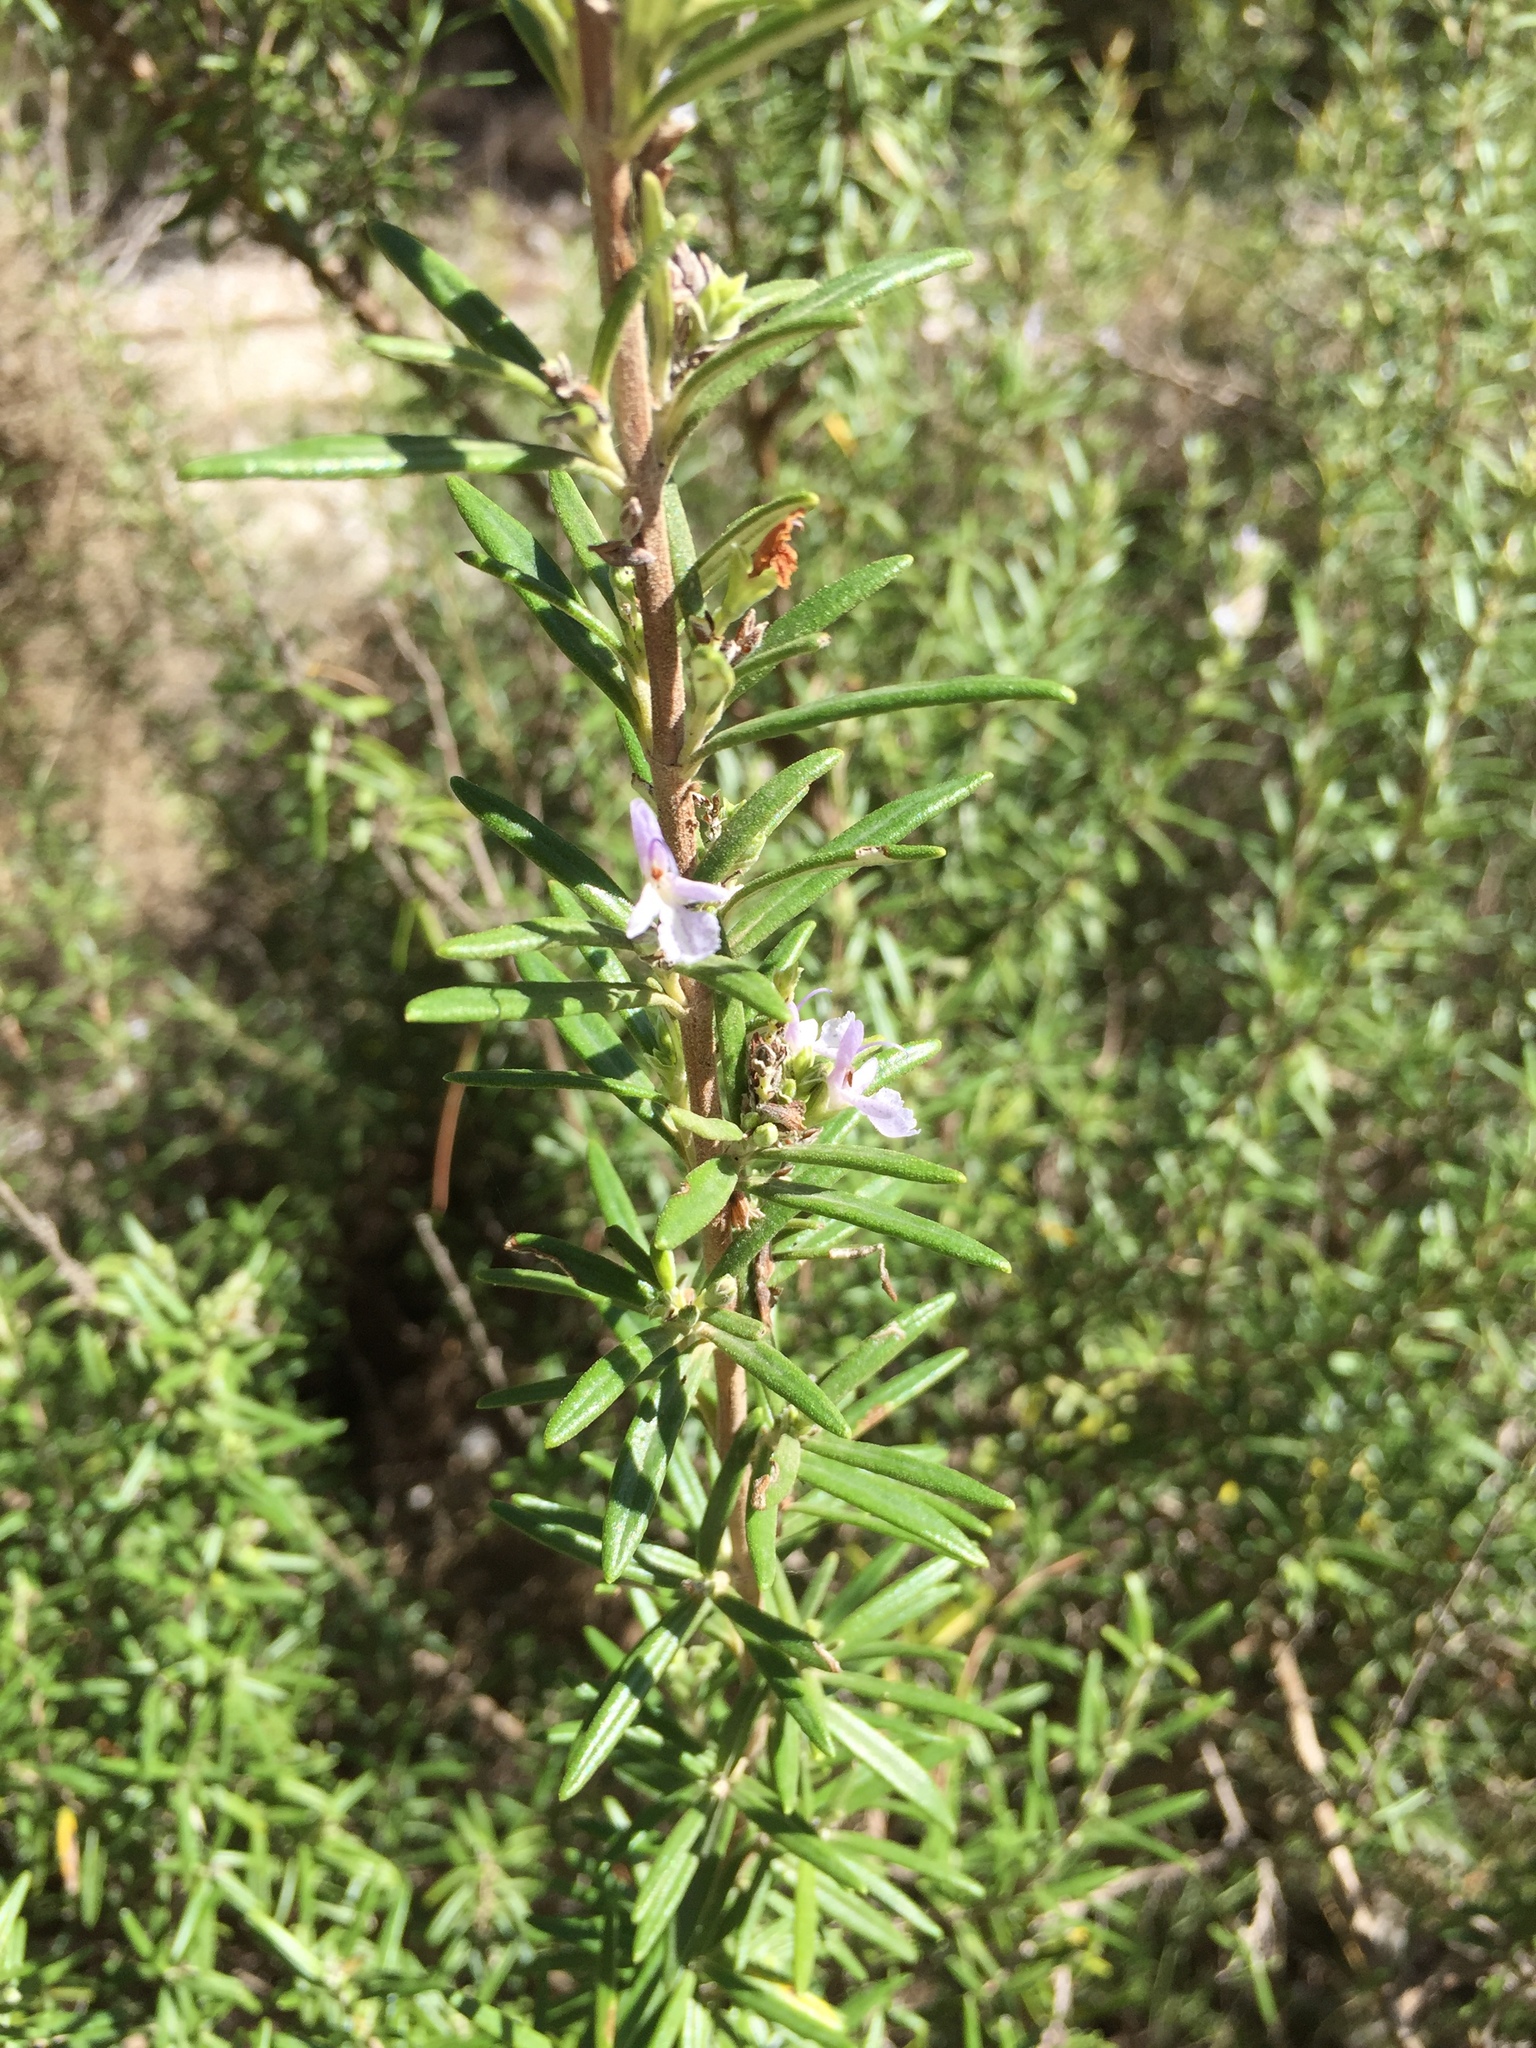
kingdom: Plantae
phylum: Tracheophyta
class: Magnoliopsida
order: Lamiales
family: Lamiaceae
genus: Salvia
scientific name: Salvia rosmarinus
